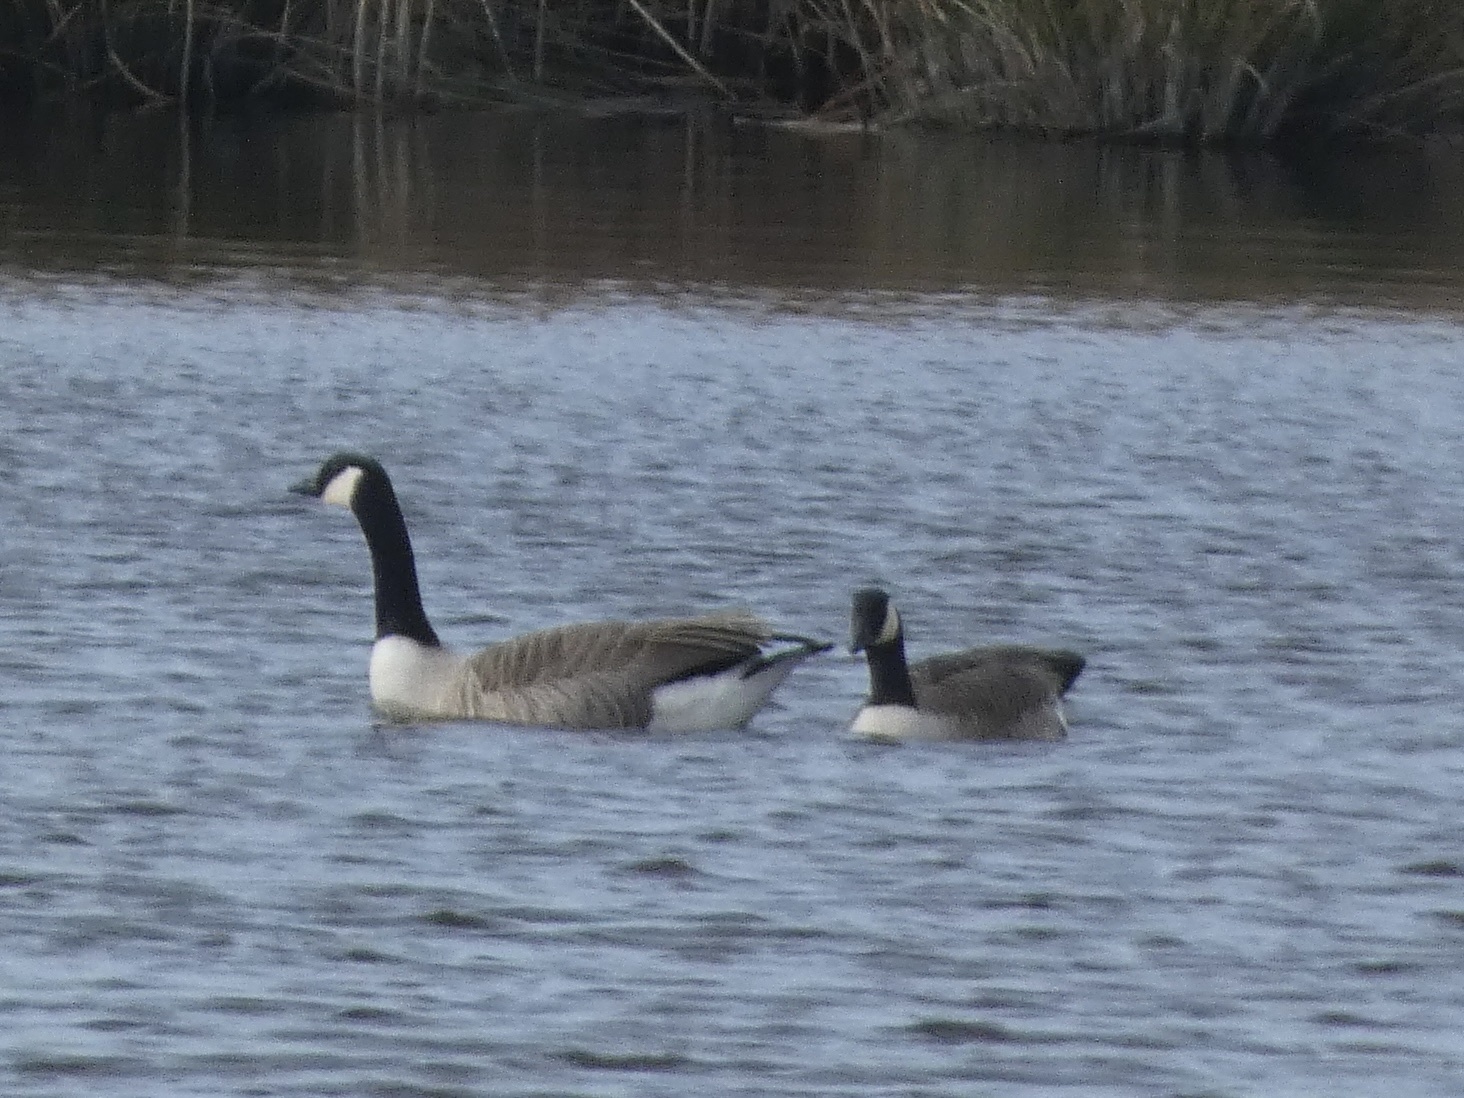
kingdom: Animalia
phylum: Chordata
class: Aves
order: Anseriformes
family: Anatidae
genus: Branta
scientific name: Branta canadensis
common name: Canada goose
